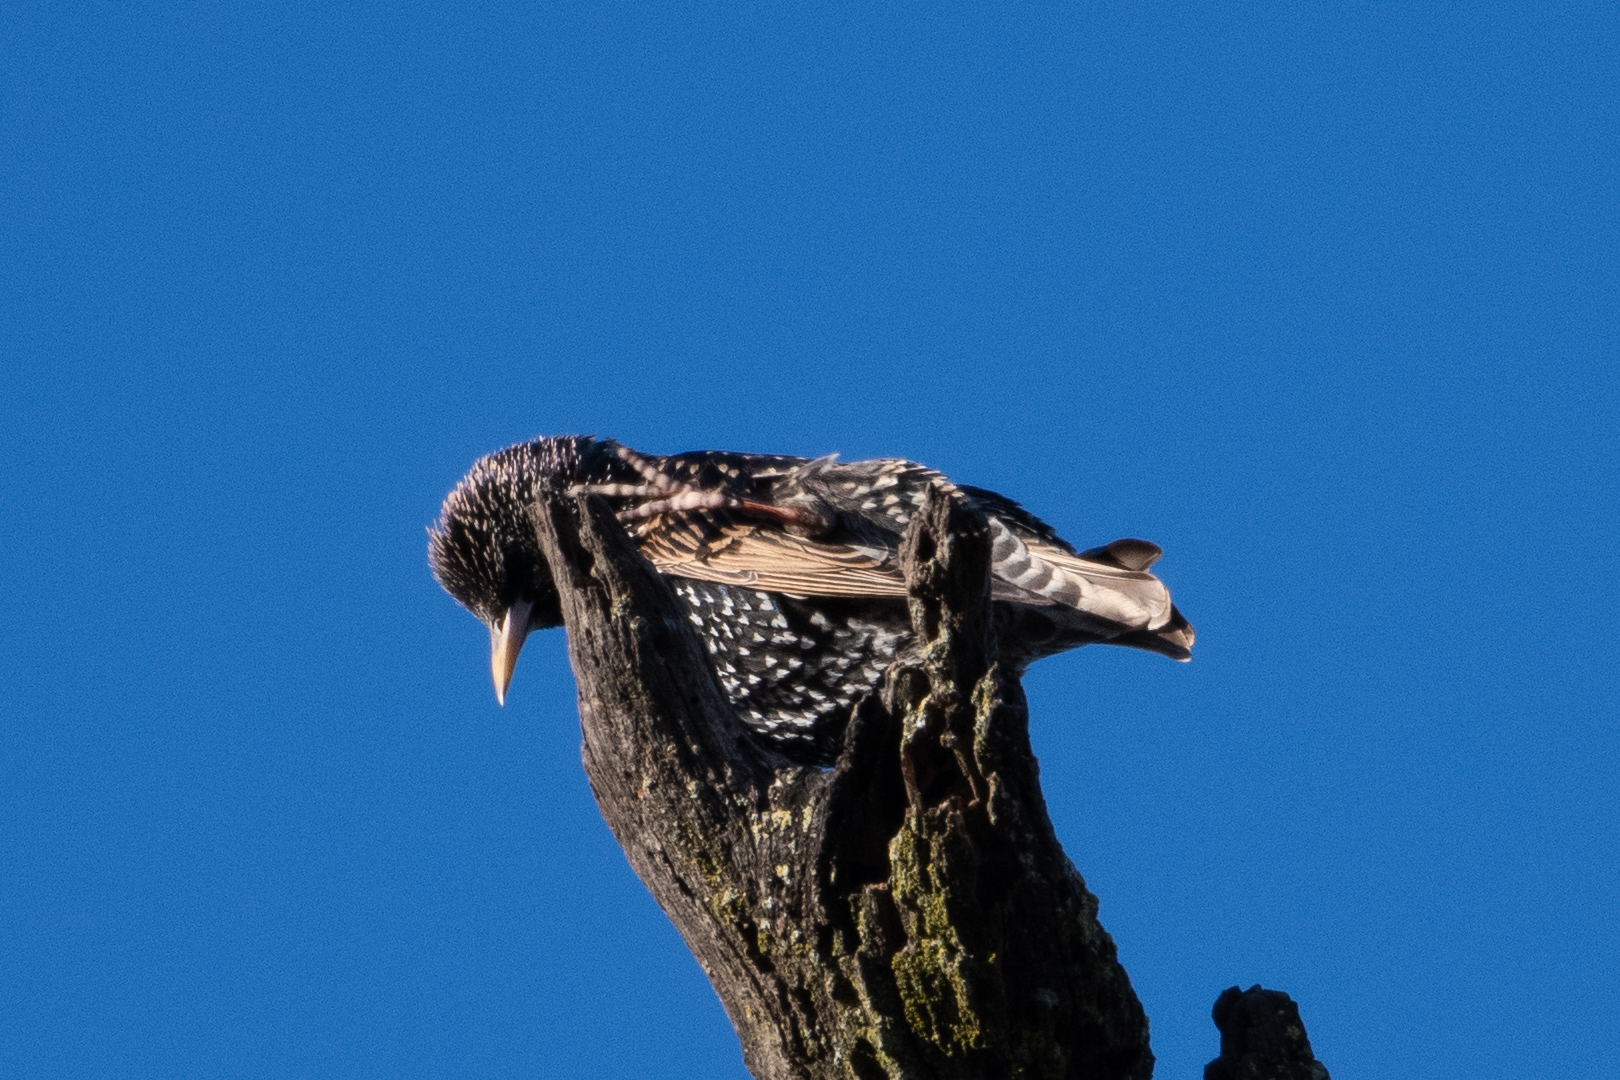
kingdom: Animalia
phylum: Chordata
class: Aves
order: Passeriformes
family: Sturnidae
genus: Sturnus
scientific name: Sturnus vulgaris
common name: Common starling
